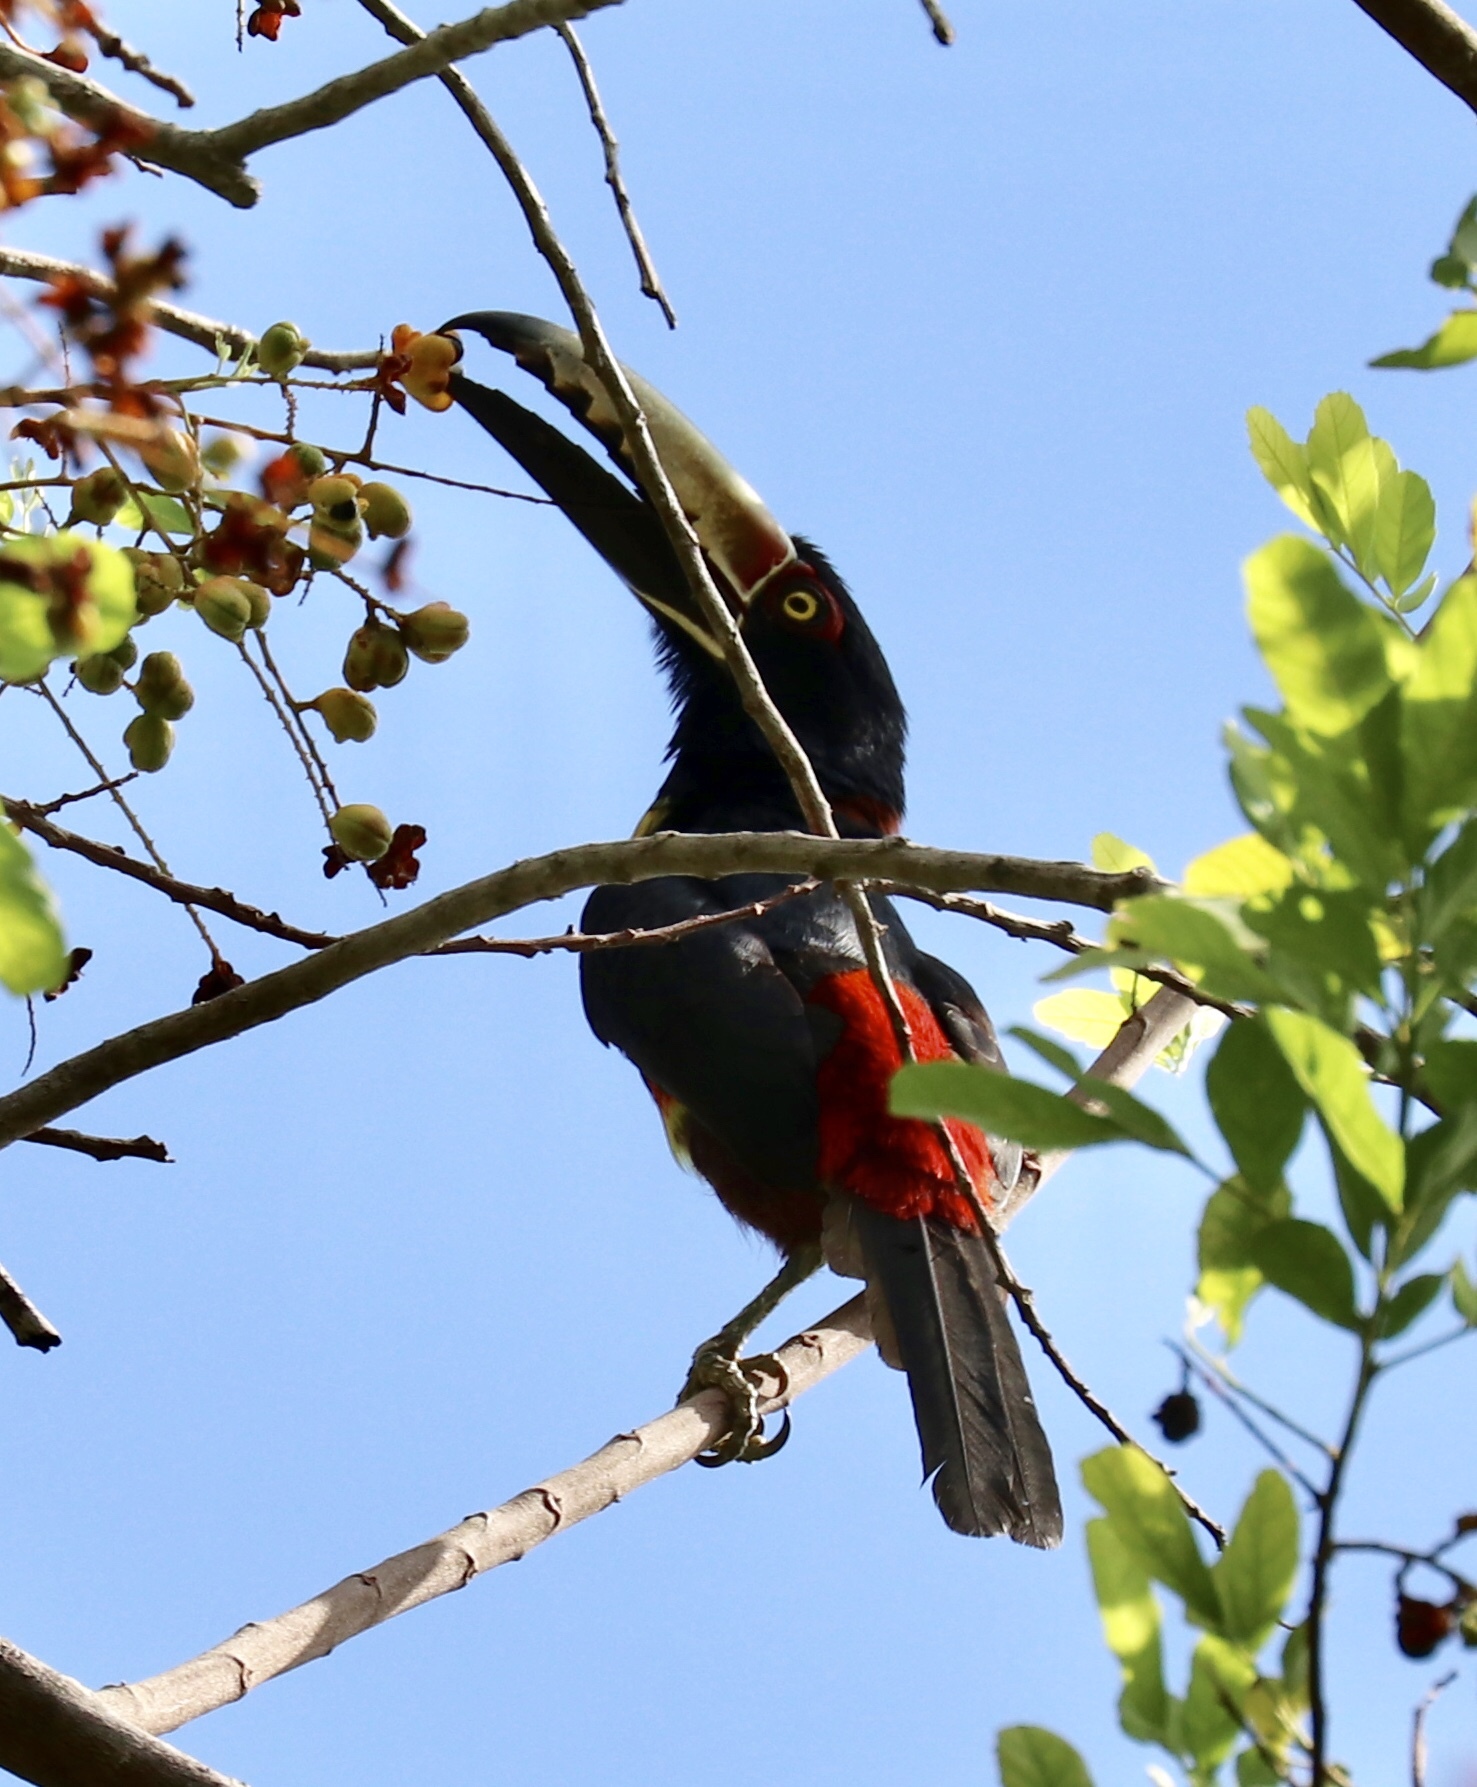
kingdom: Animalia
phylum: Chordata
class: Aves
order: Piciformes
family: Ramphastidae
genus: Pteroglossus
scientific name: Pteroglossus torquatus
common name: Collared aracari
